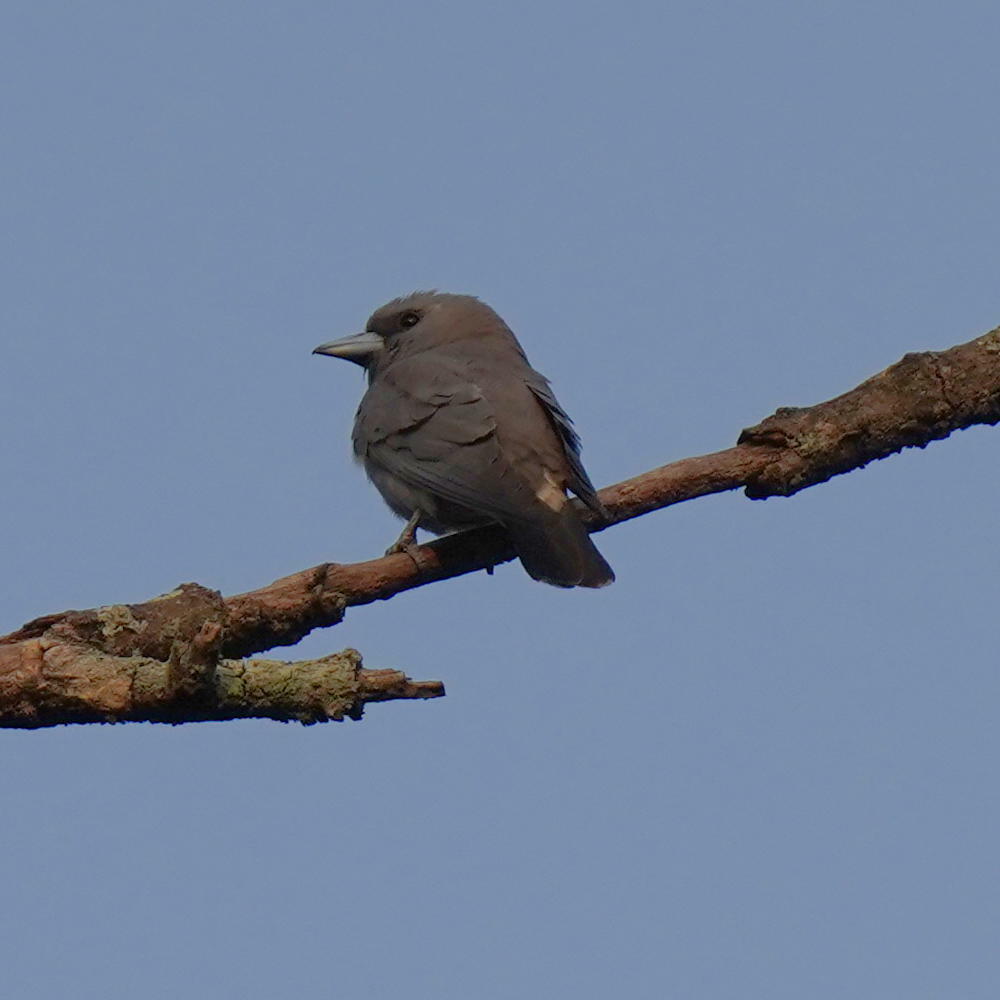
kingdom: Animalia
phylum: Chordata
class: Aves
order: Passeriformes
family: Artamidae
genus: Artamus
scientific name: Artamus fuscus
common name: Ashy woodswallow
